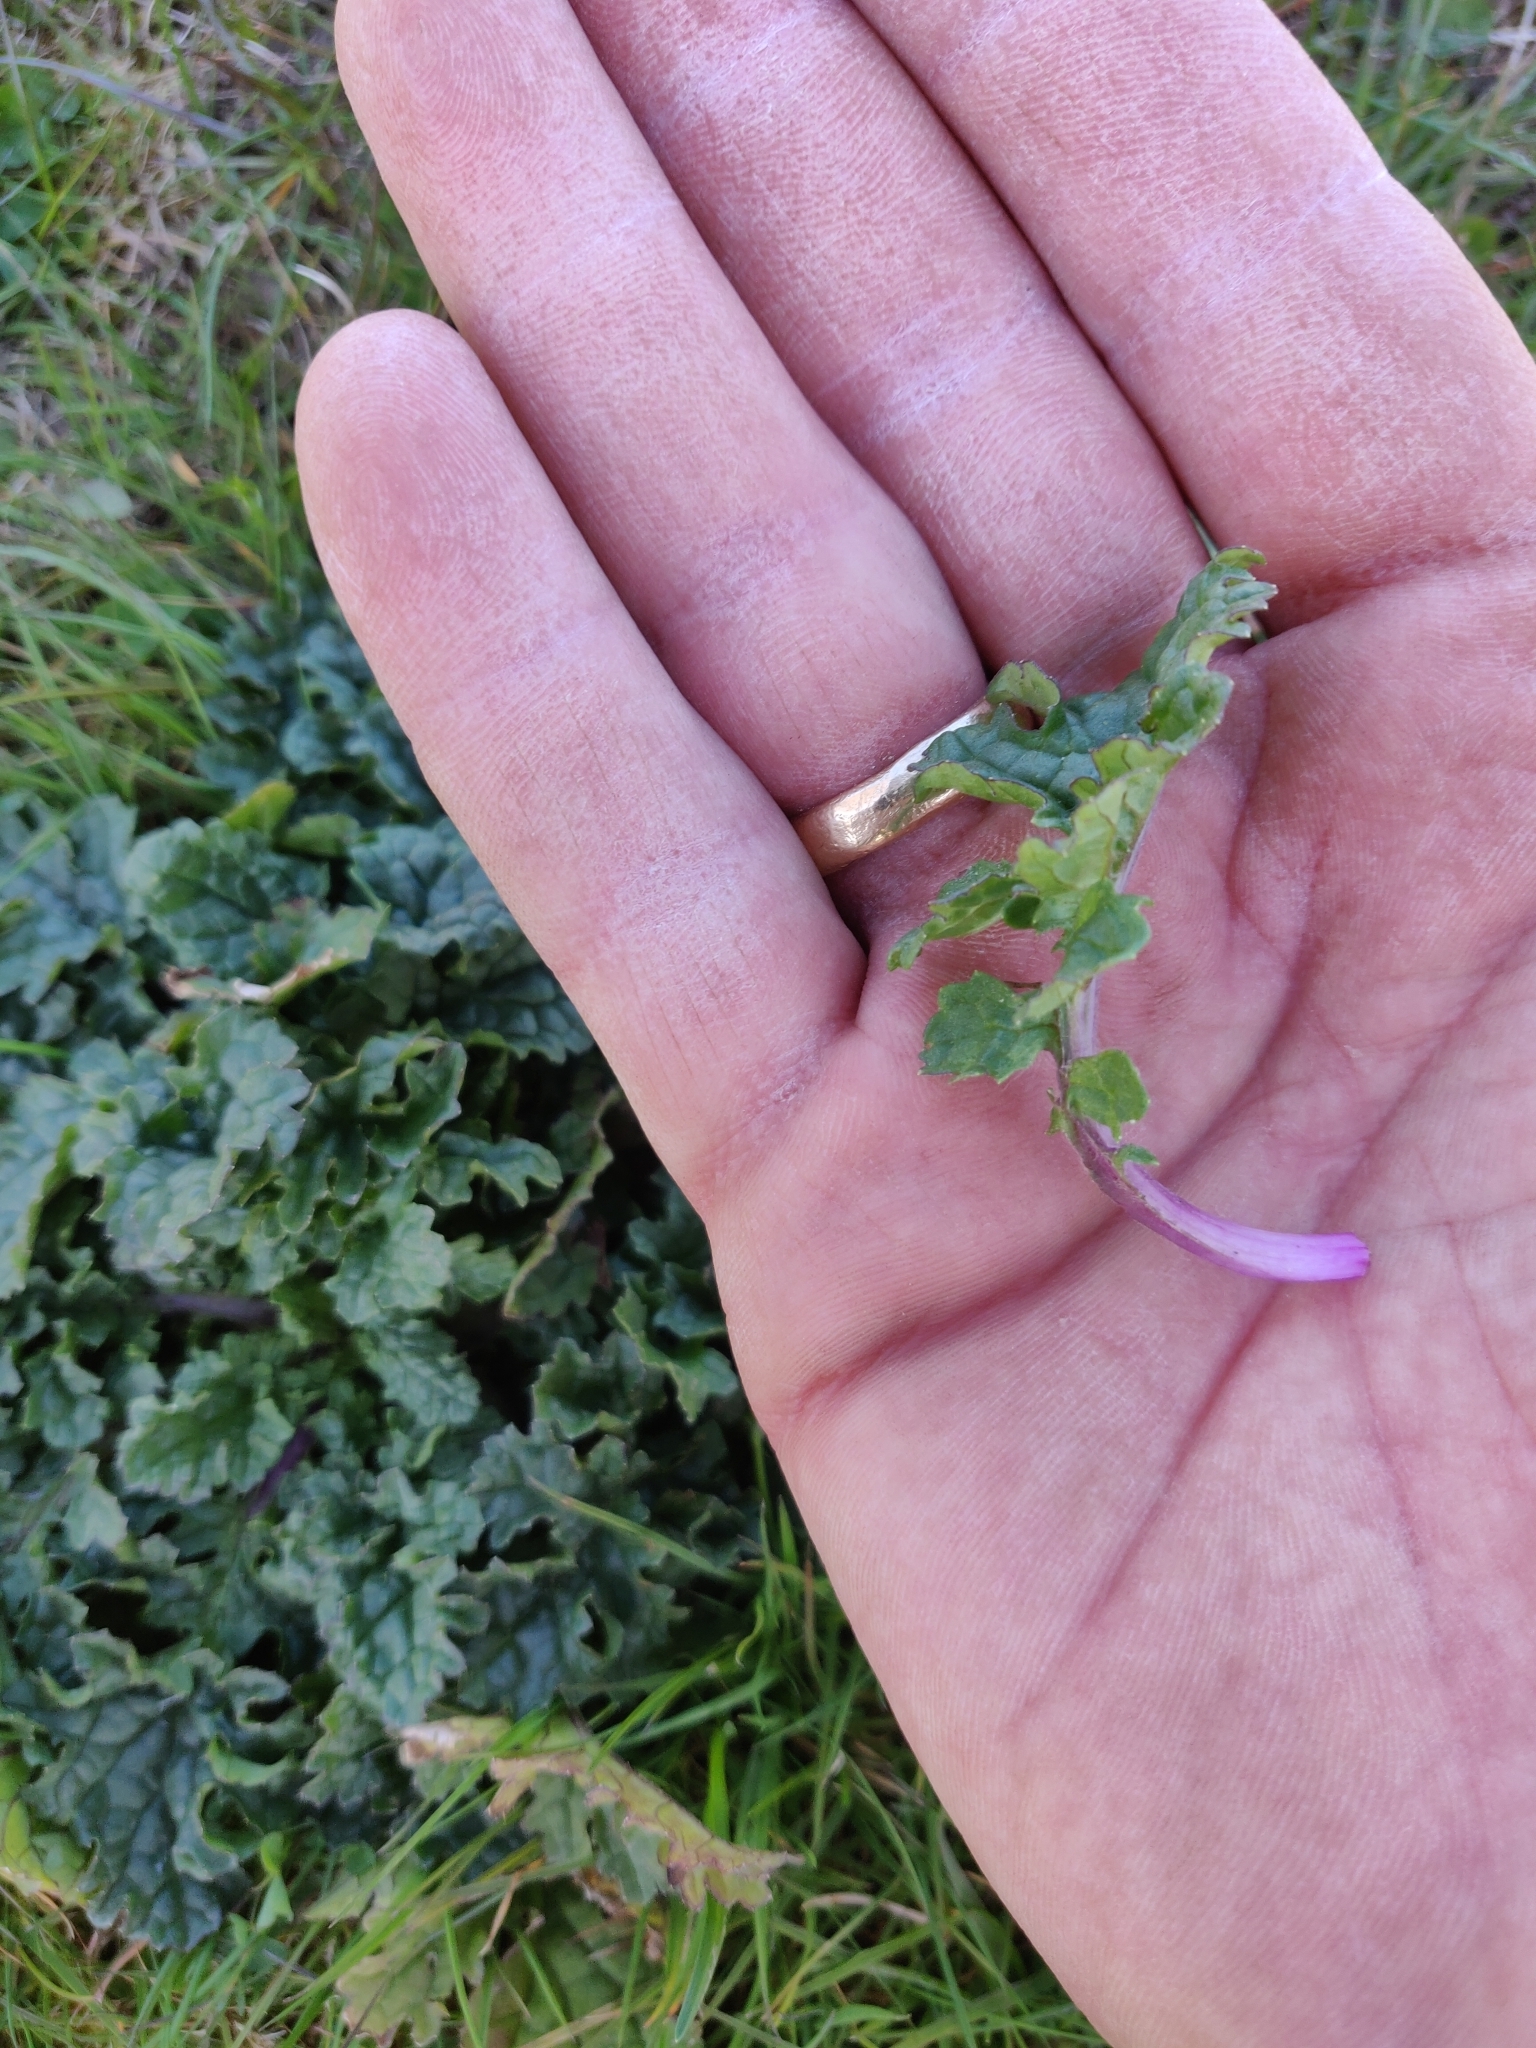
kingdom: Plantae
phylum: Tracheophyta
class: Magnoliopsida
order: Asterales
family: Asteraceae
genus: Jacobaea
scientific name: Jacobaea vulgaris
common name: Stinking willie
